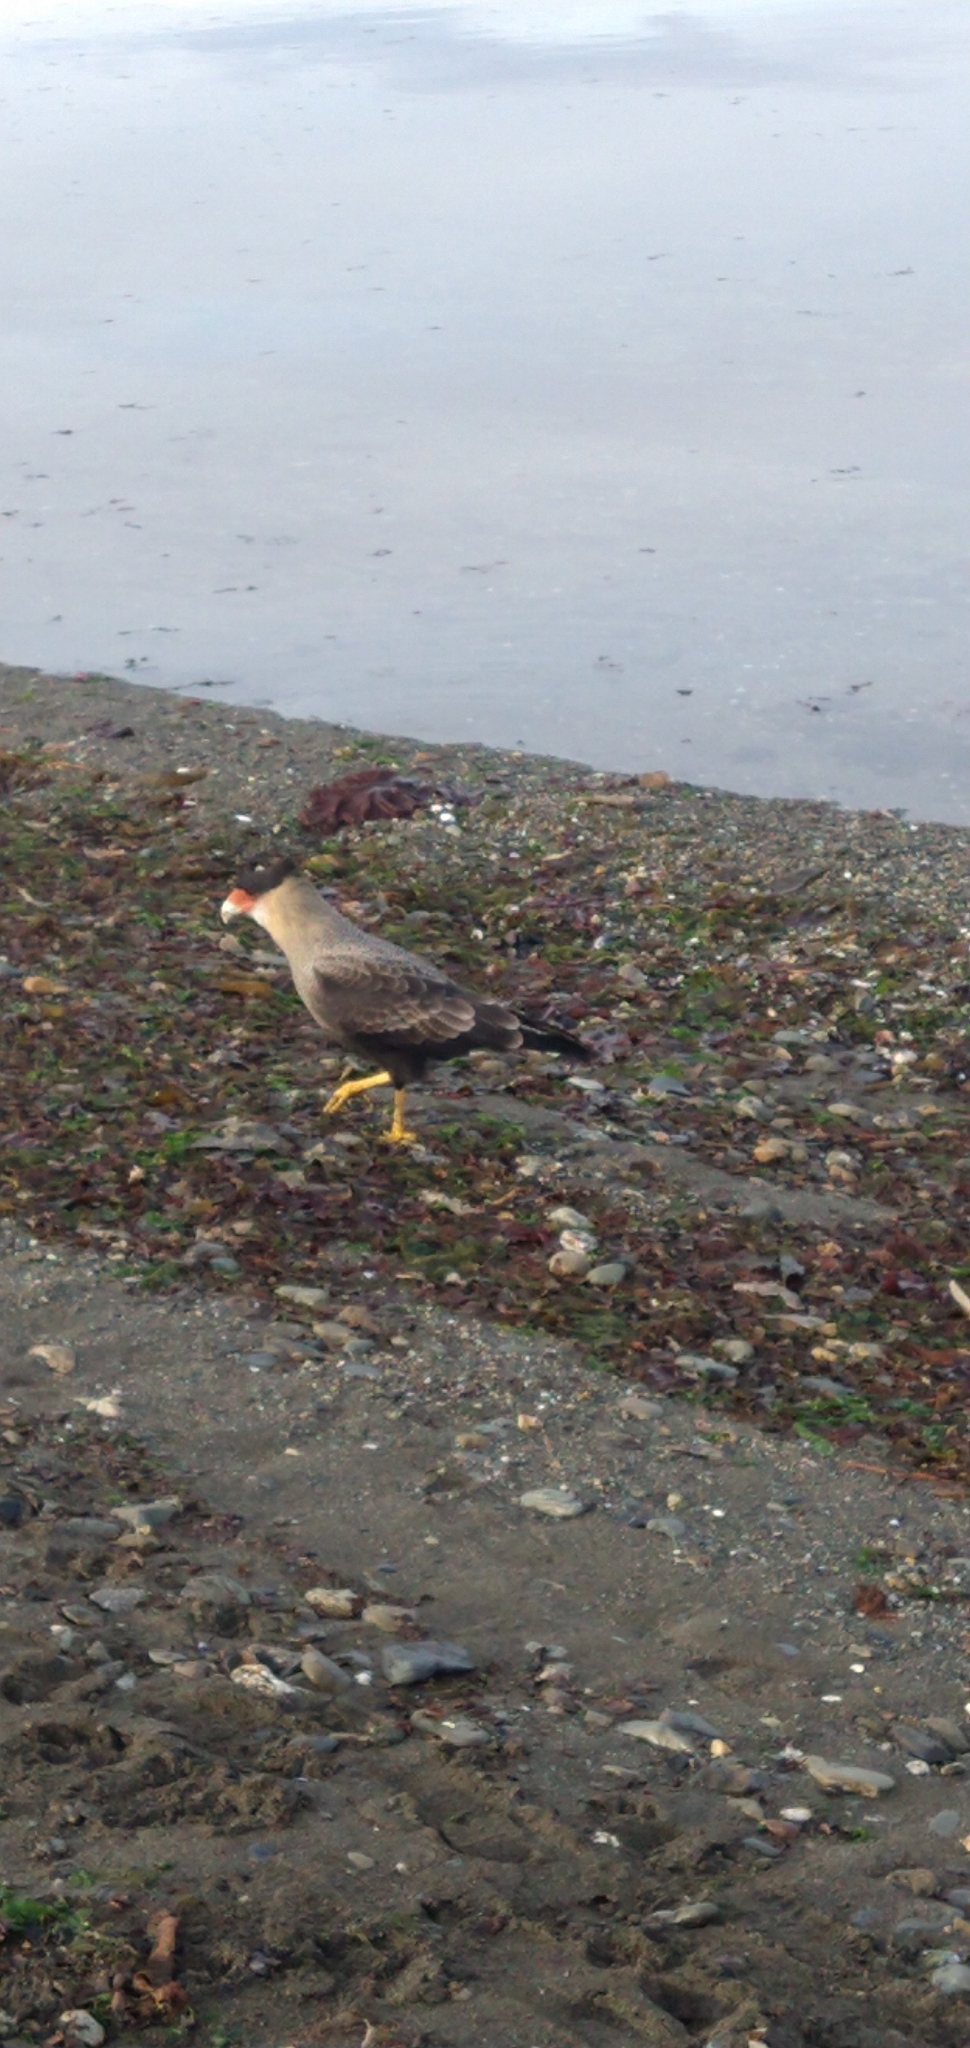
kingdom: Animalia
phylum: Chordata
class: Aves
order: Falconiformes
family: Falconidae
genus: Caracara
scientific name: Caracara plancus
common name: Southern caracara
